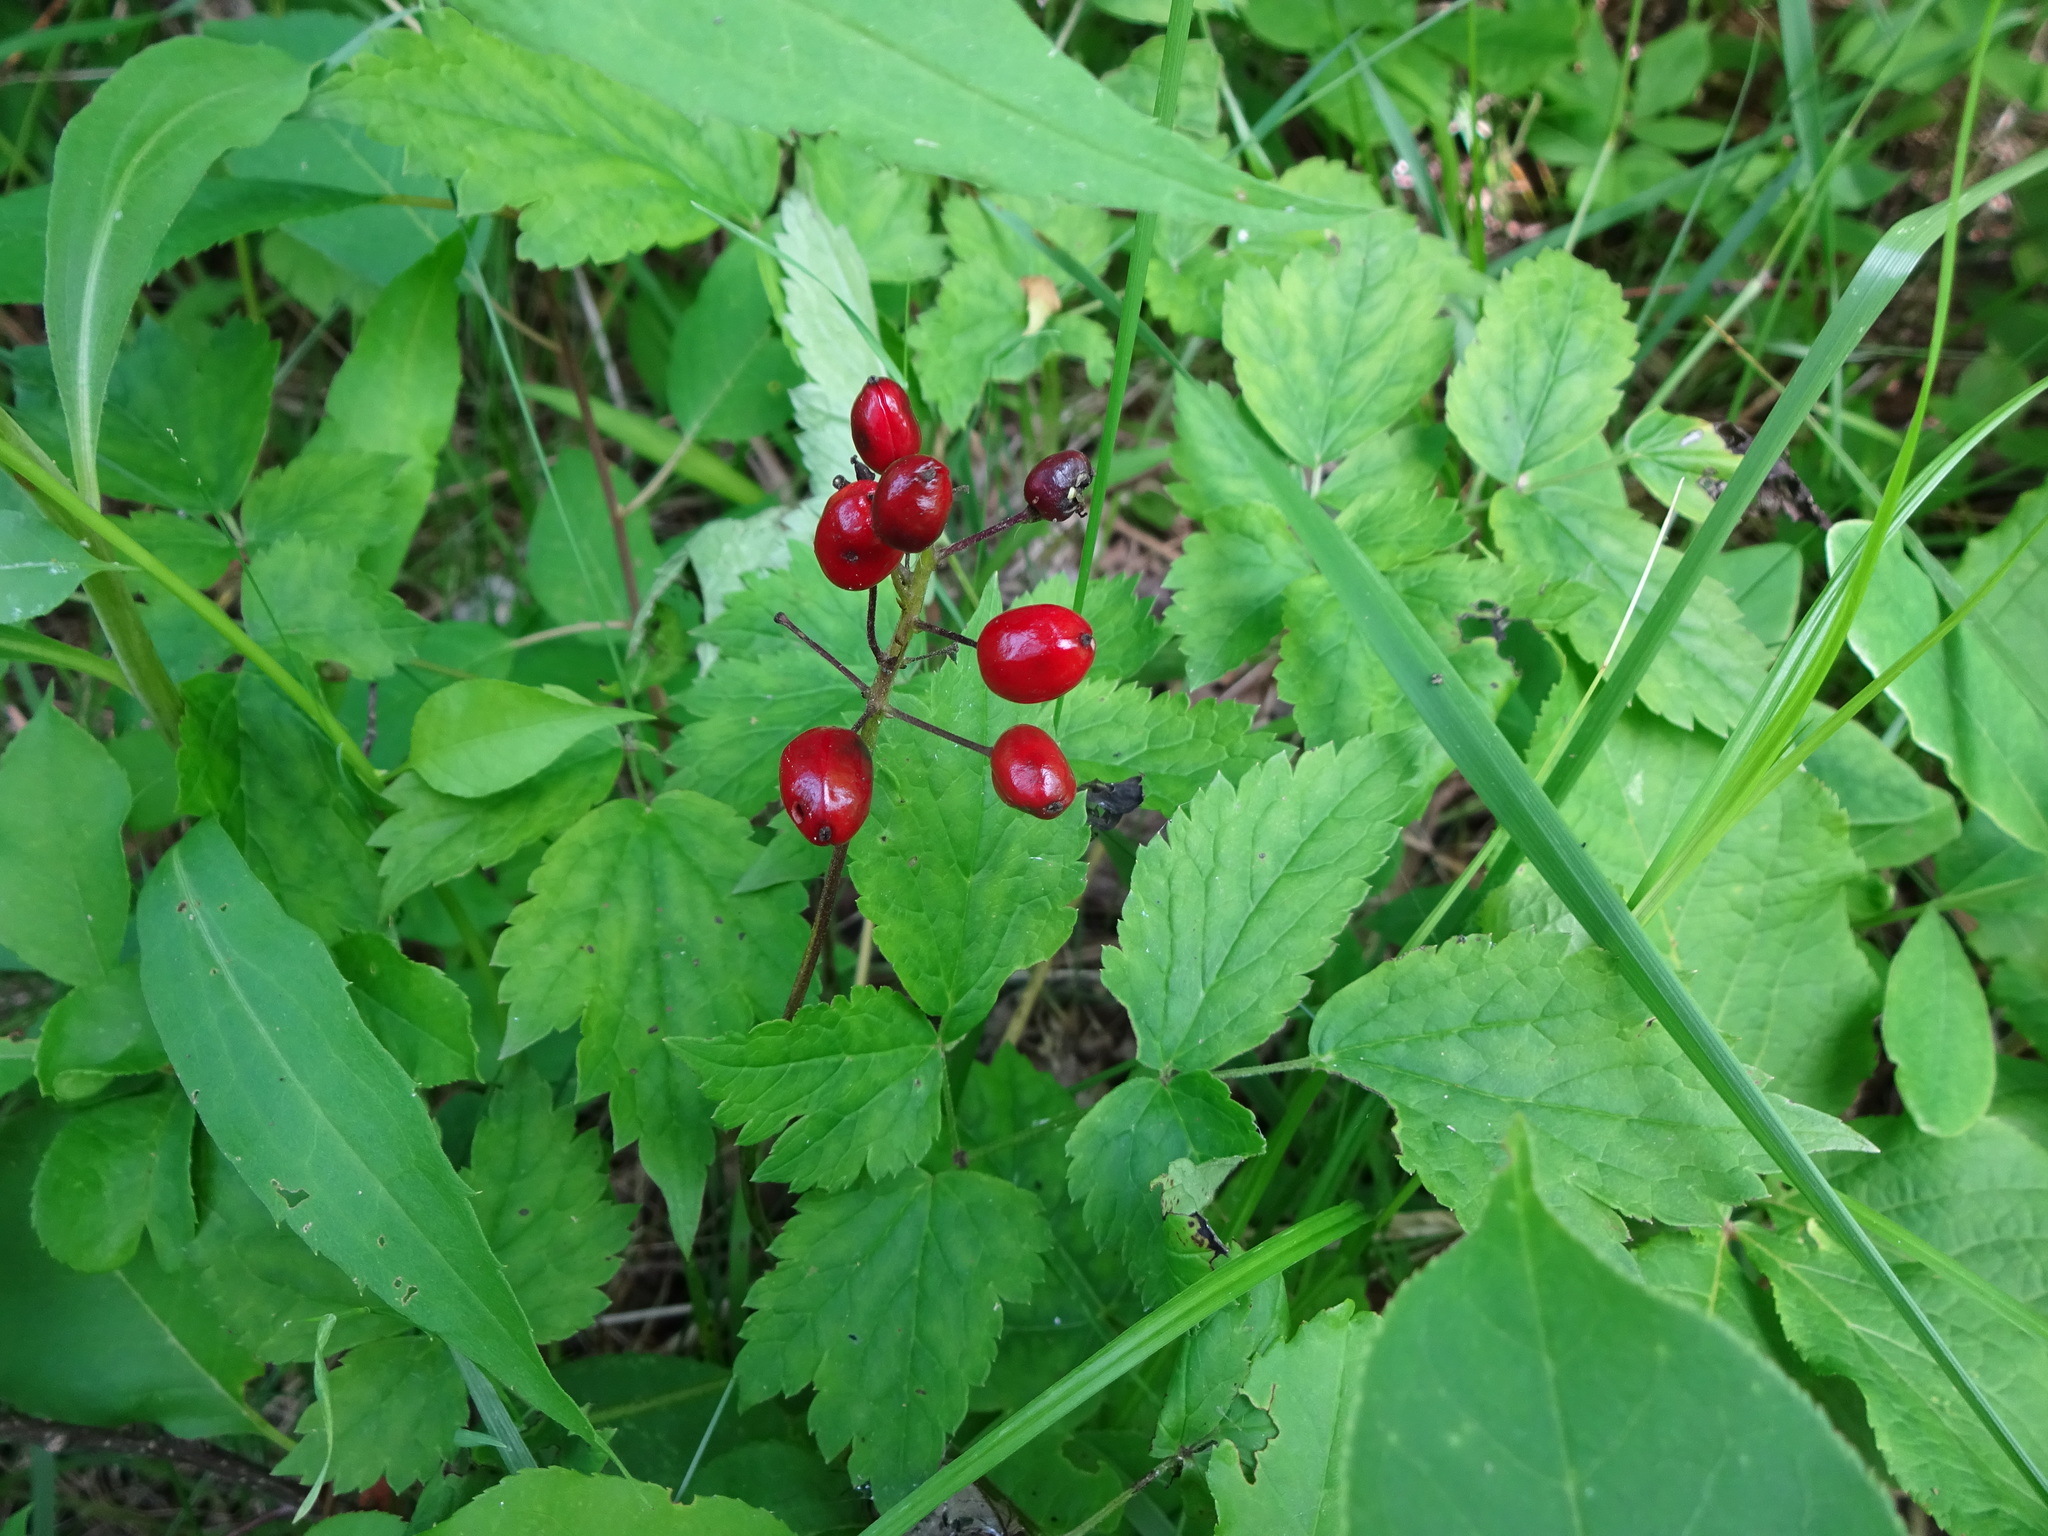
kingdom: Plantae
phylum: Tracheophyta
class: Magnoliopsida
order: Ranunculales
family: Ranunculaceae
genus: Actaea
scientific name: Actaea rubra
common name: Red baneberry
